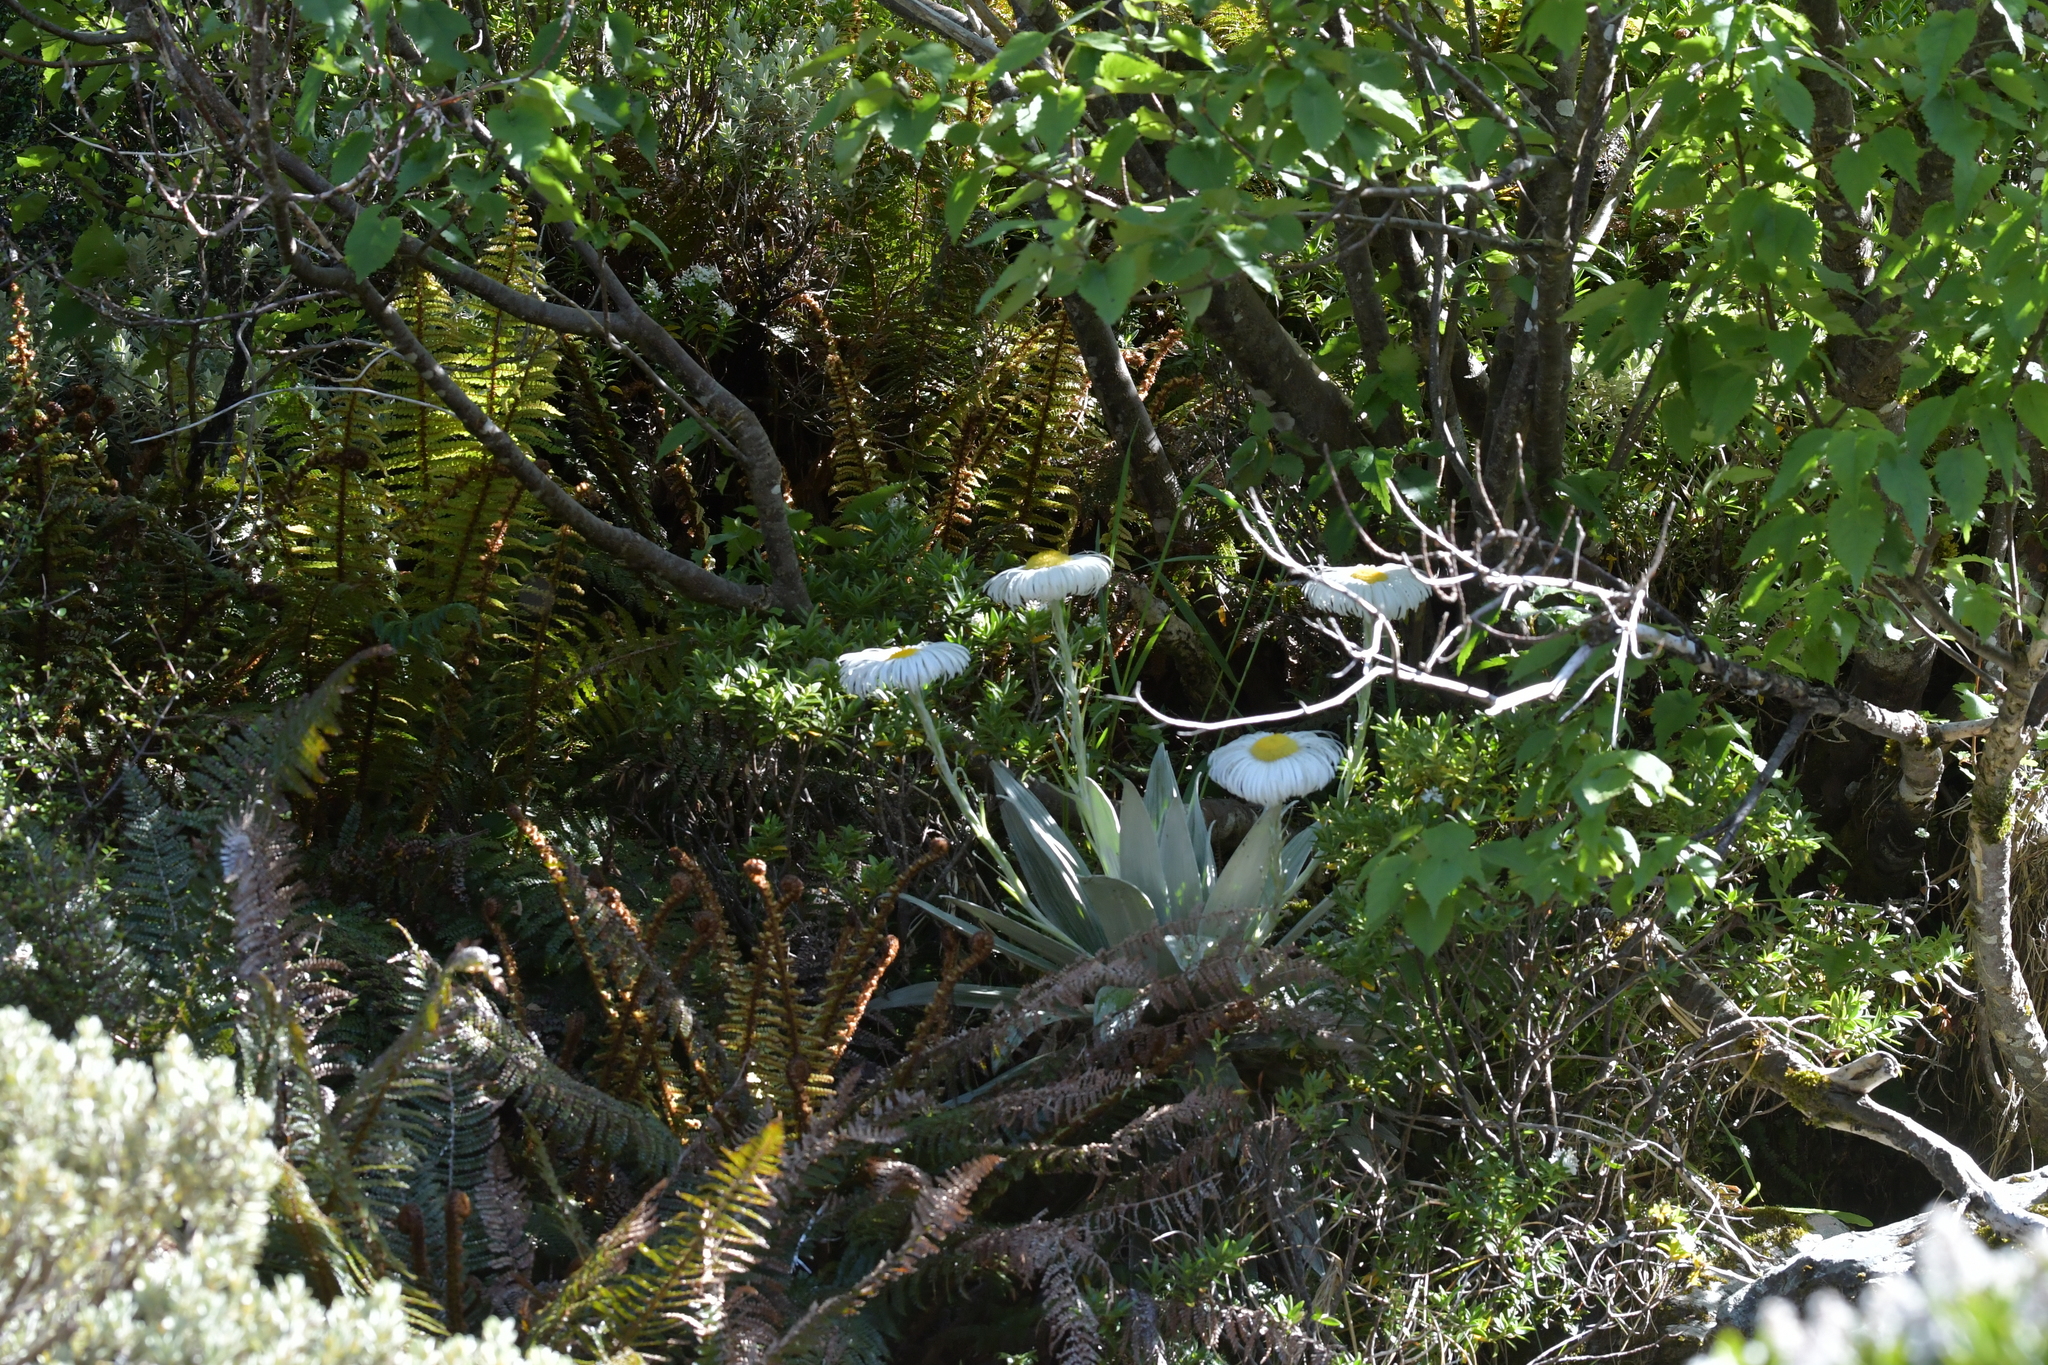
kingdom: Plantae
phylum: Tracheophyta
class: Magnoliopsida
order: Asterales
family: Asteraceae
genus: Celmisia
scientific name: Celmisia semicordata
